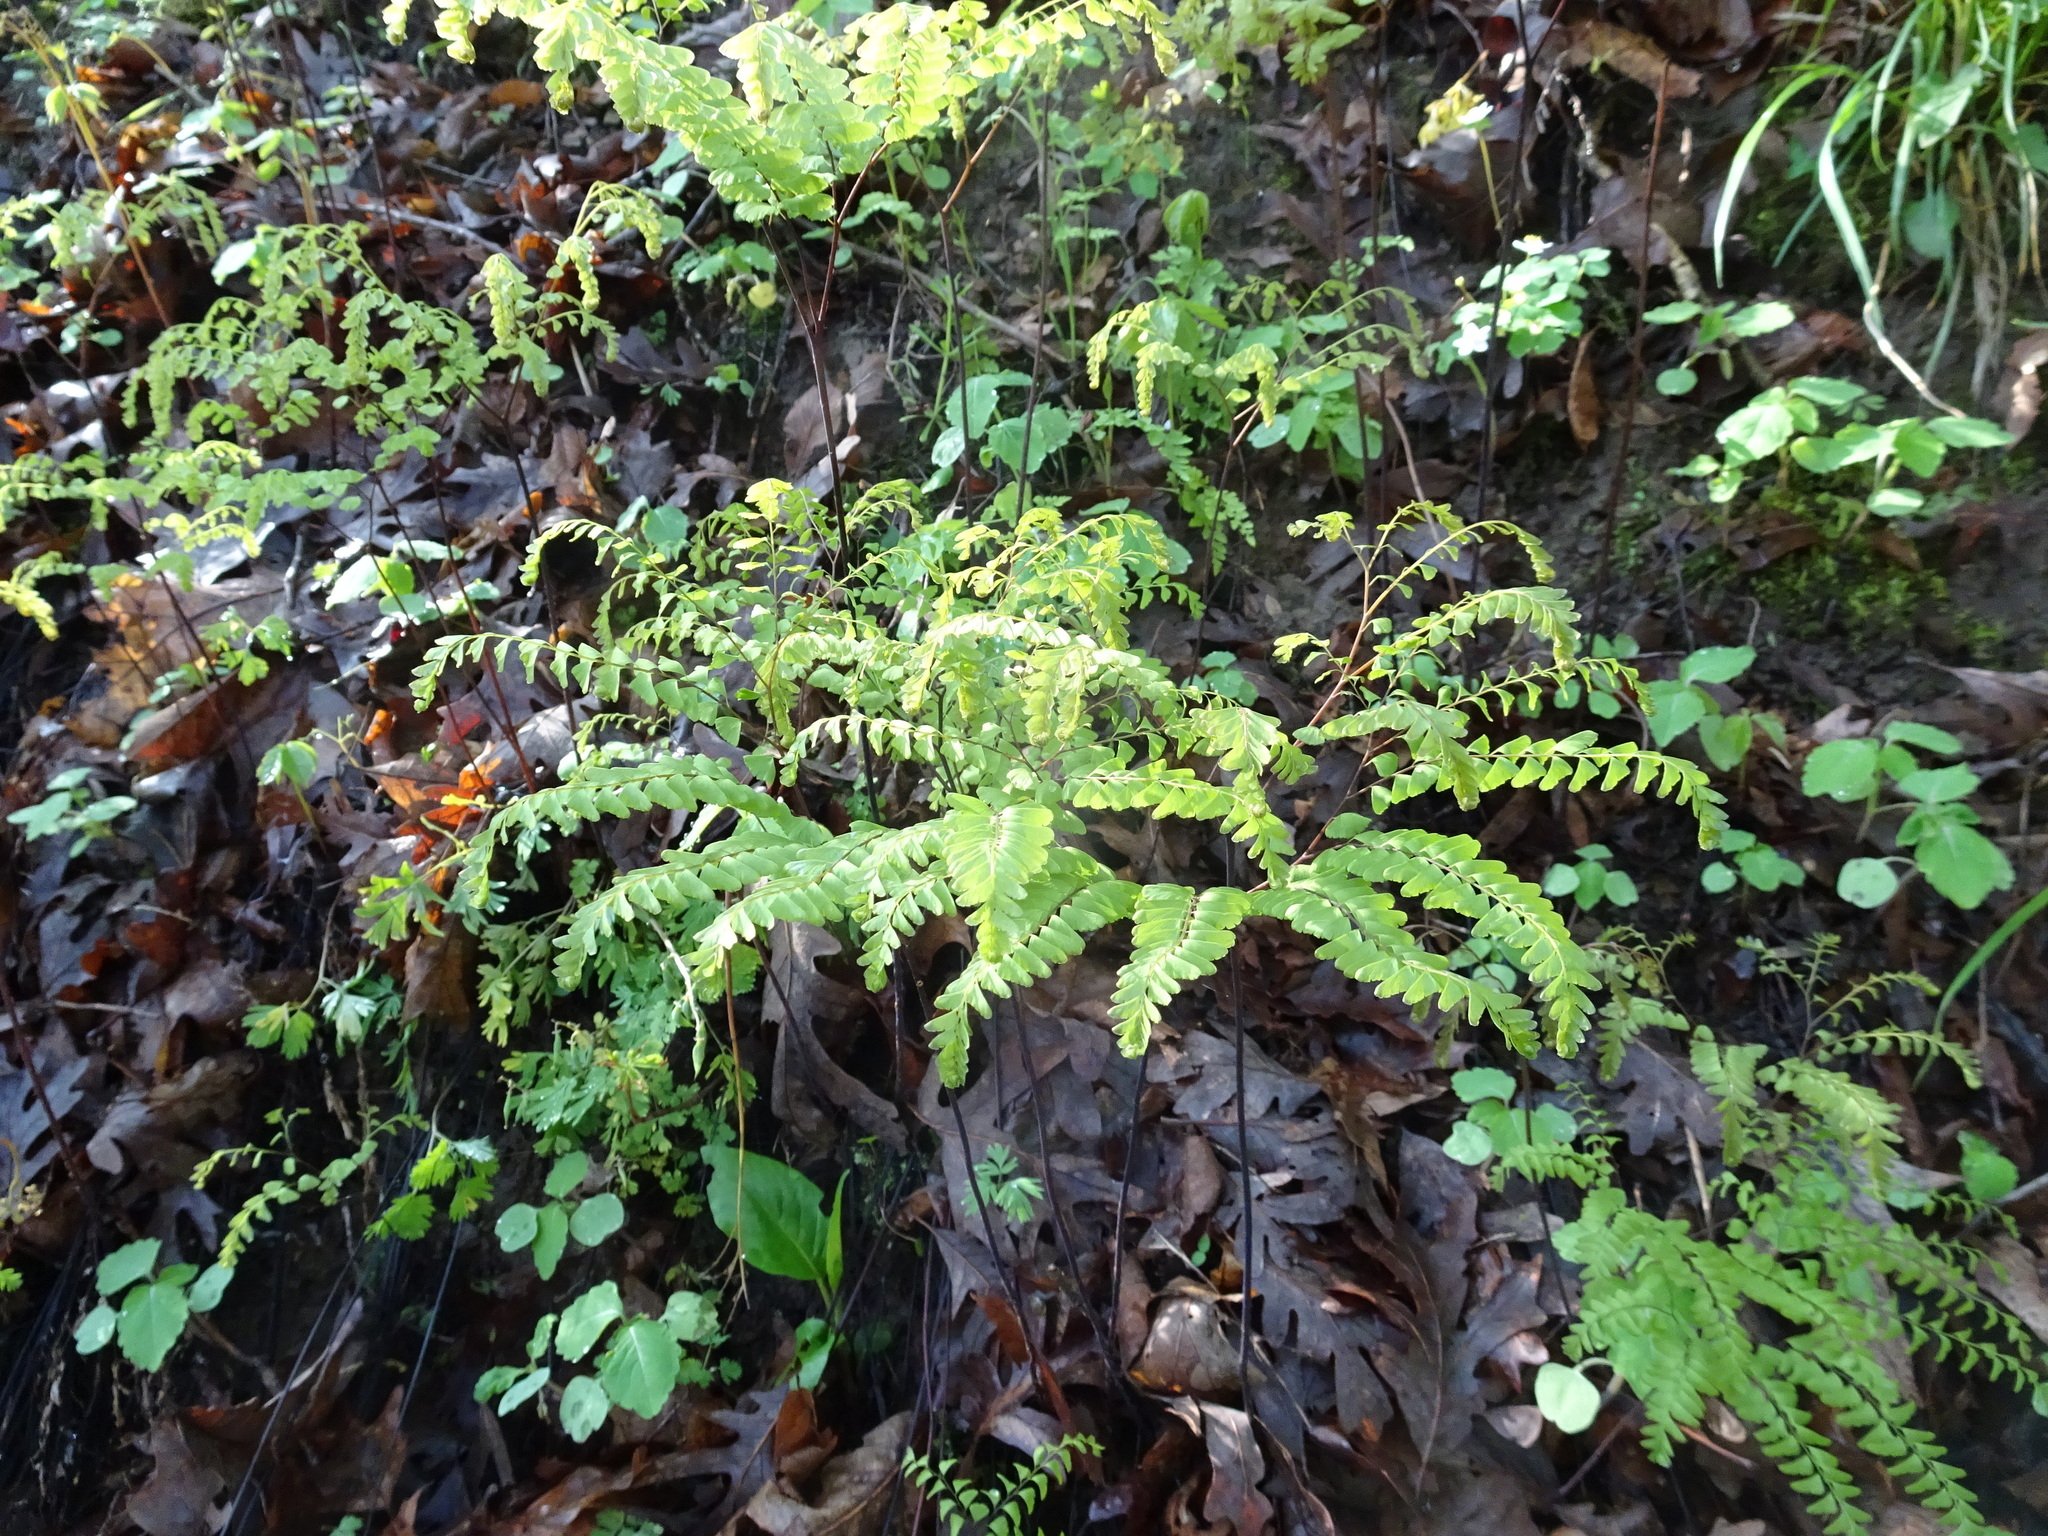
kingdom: Plantae
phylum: Tracheophyta
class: Polypodiopsida
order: Polypodiales
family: Pteridaceae
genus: Adiantum
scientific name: Adiantum pedatum
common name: Five-finger fern
